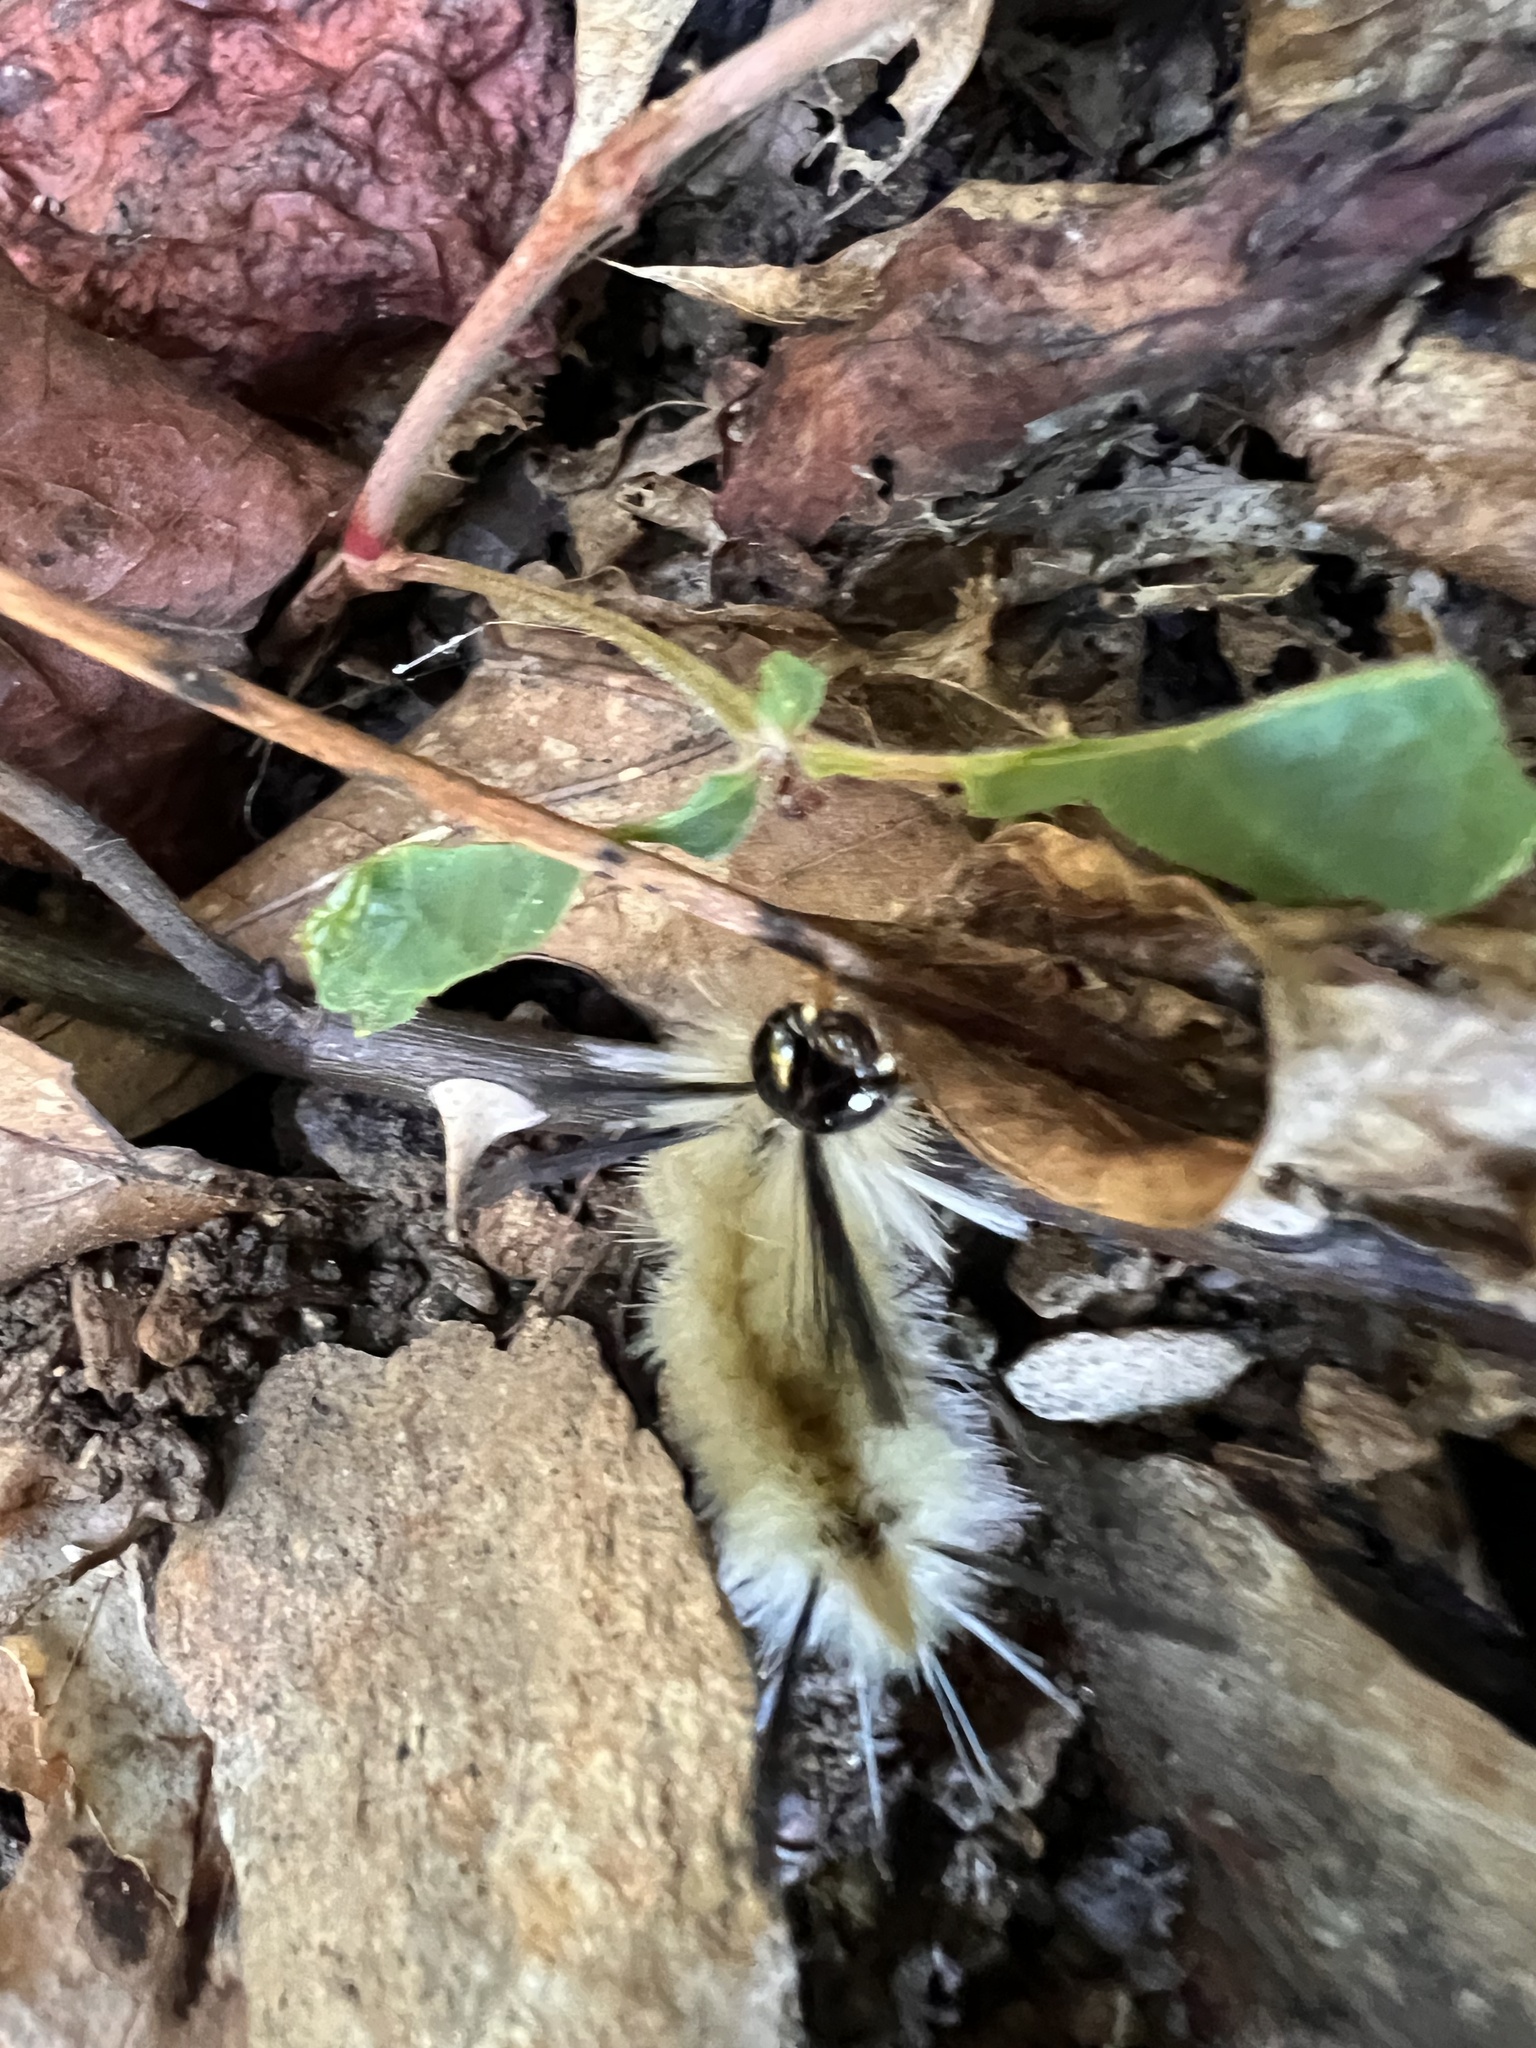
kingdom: Animalia
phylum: Arthropoda
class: Insecta
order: Lepidoptera
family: Erebidae
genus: Halysidota
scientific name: Halysidota tessellaris
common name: Banded tussock moth
